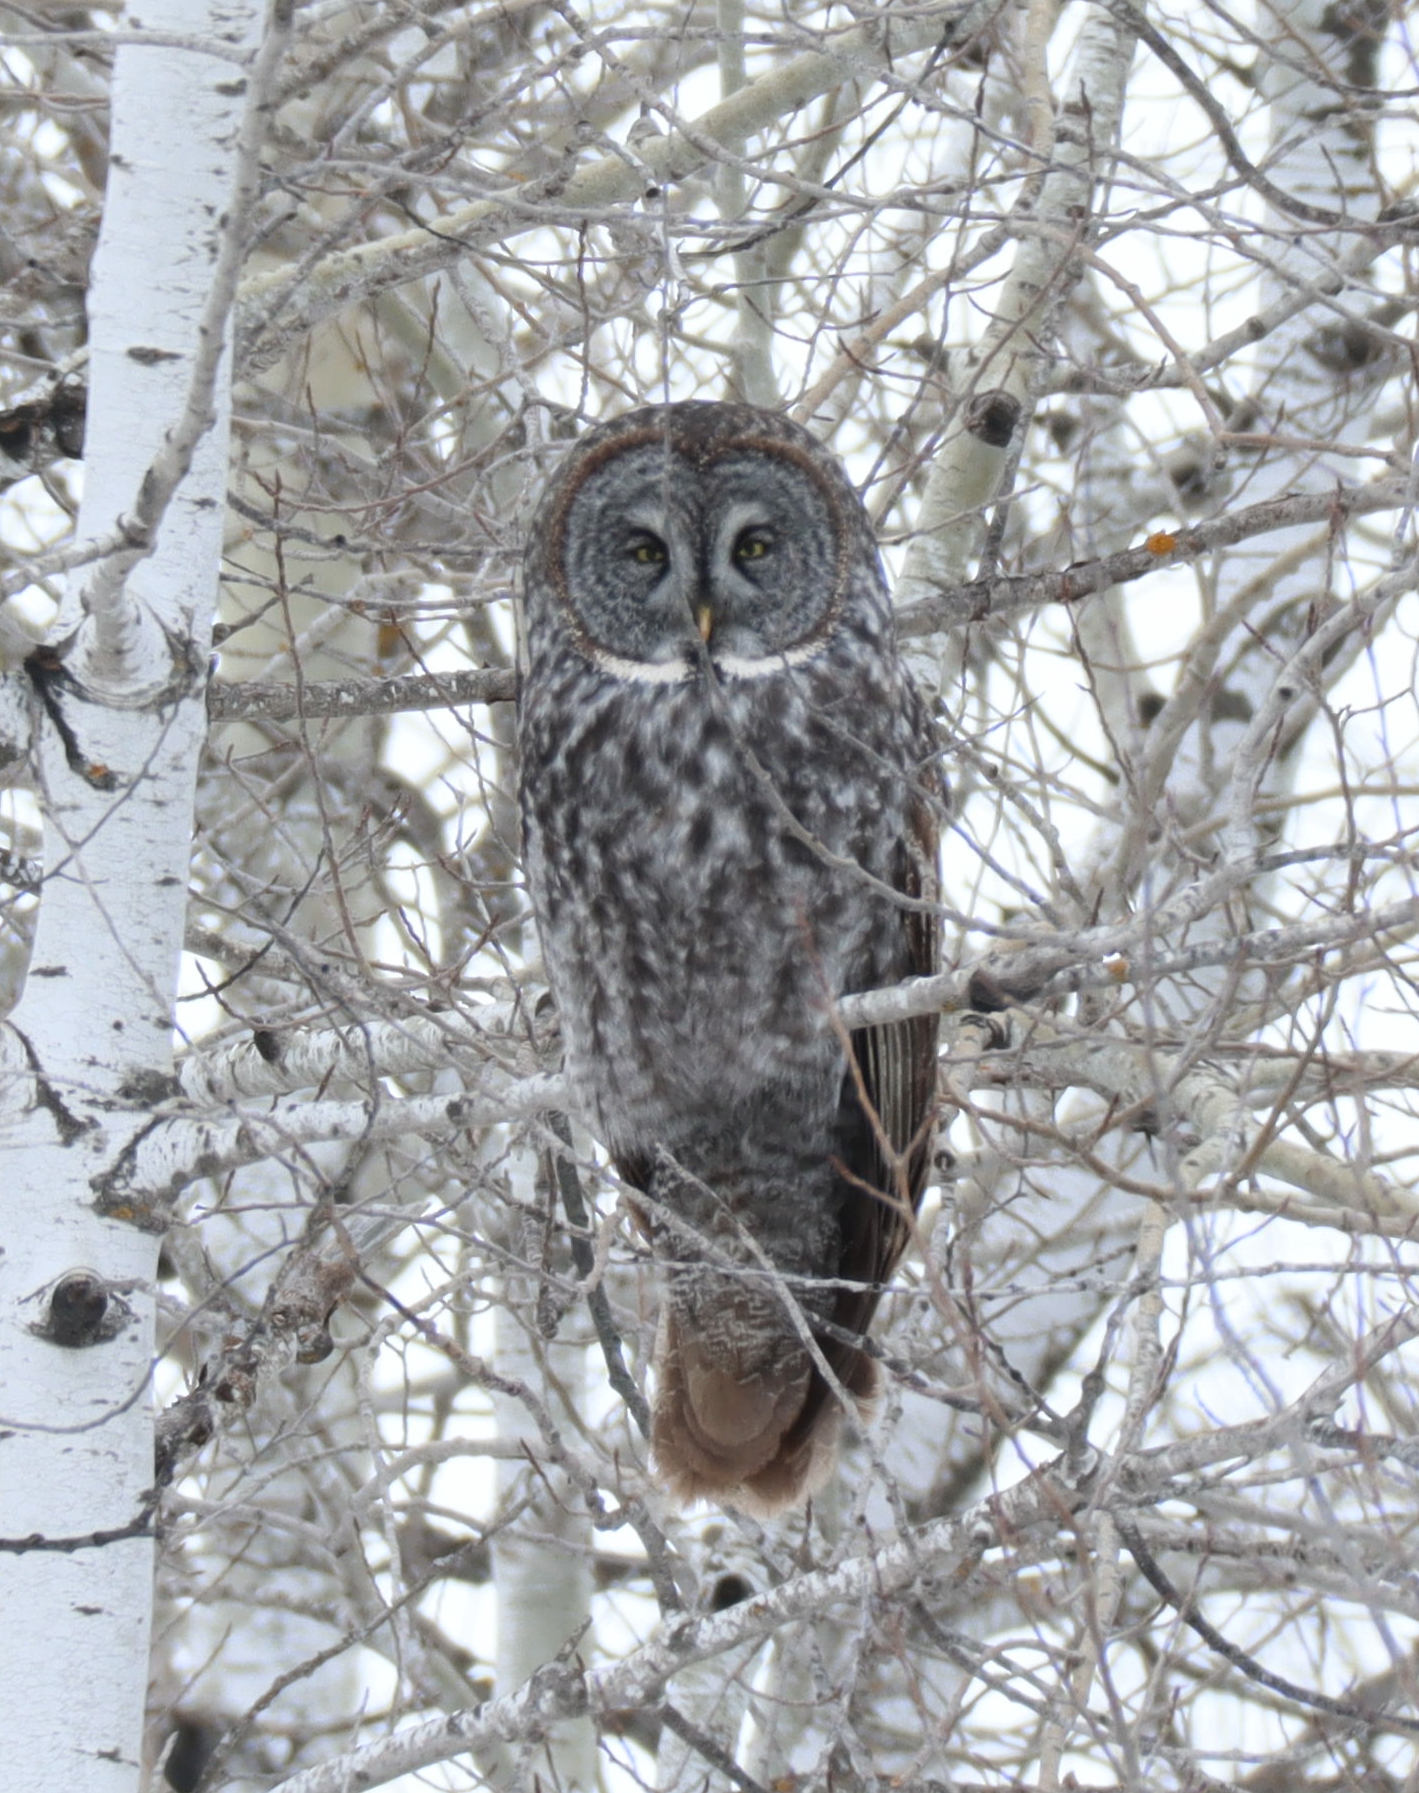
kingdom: Animalia
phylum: Chordata
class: Aves
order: Strigiformes
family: Strigidae
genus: Strix
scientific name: Strix nebulosa
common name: Great grey owl
